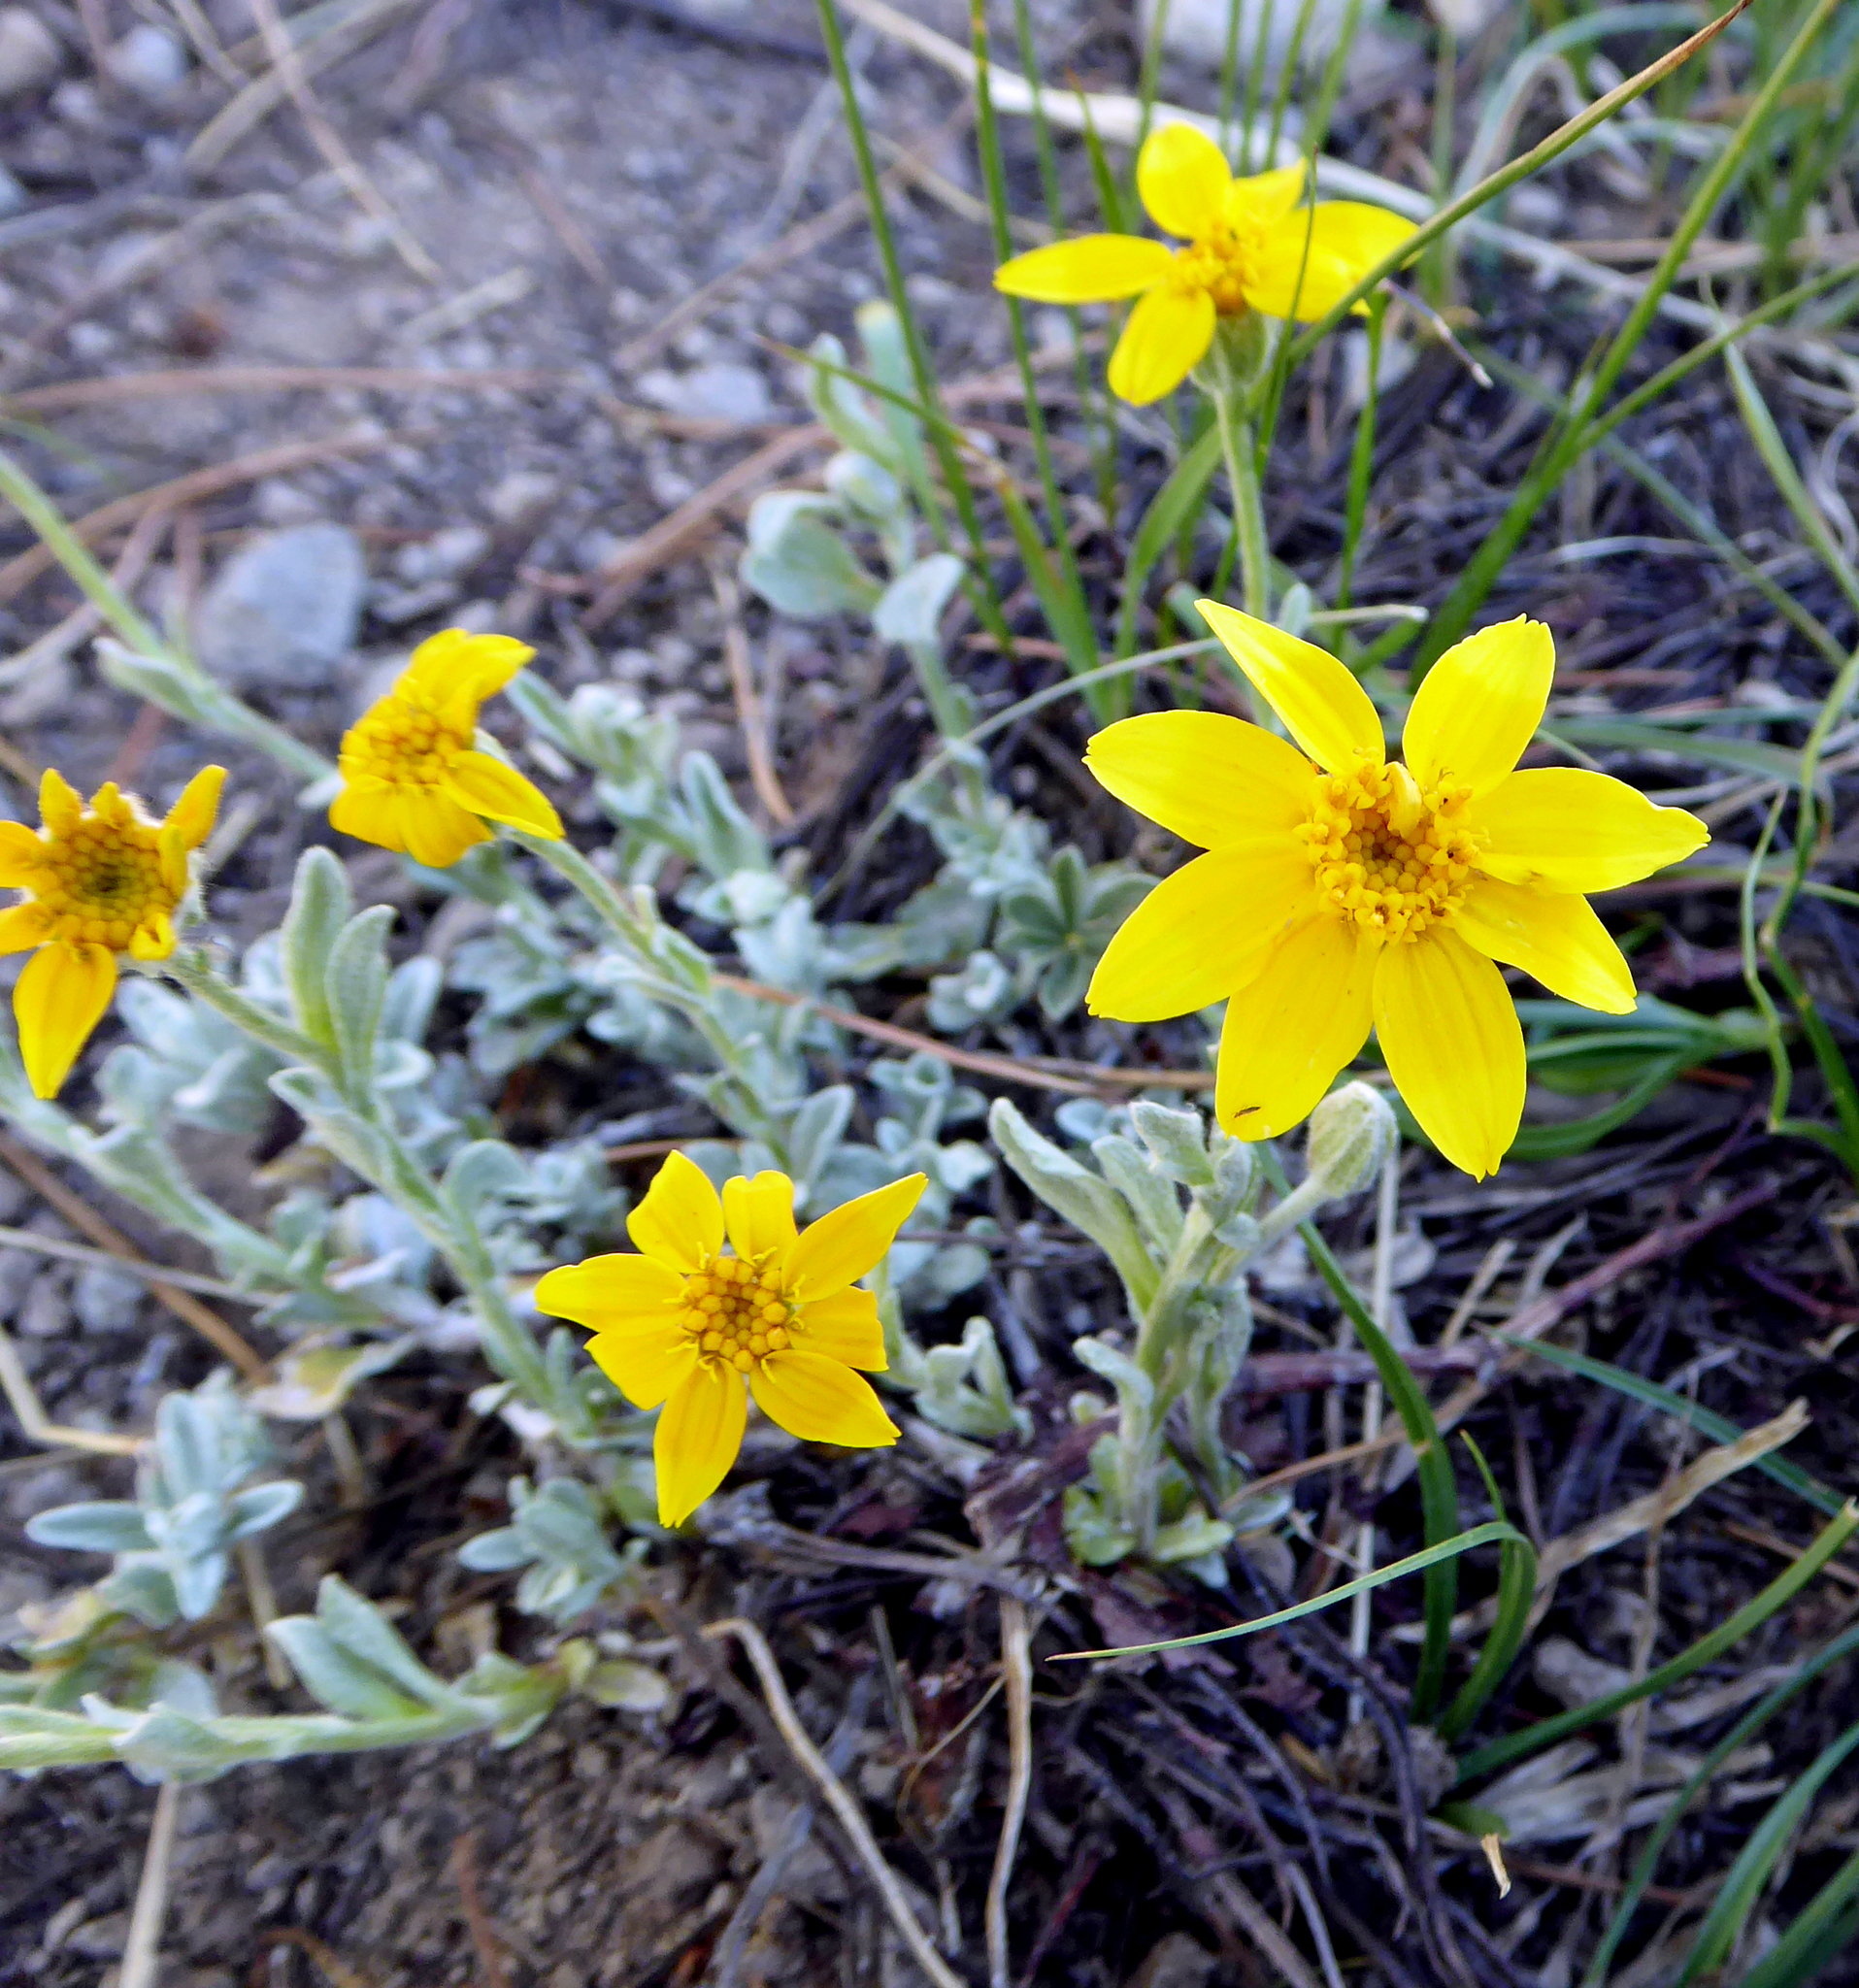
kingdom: Plantae
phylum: Tracheophyta
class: Magnoliopsida
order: Asterales
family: Asteraceae
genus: Eriophyllum
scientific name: Eriophyllum lanatum
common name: Common woolly-sunflower
